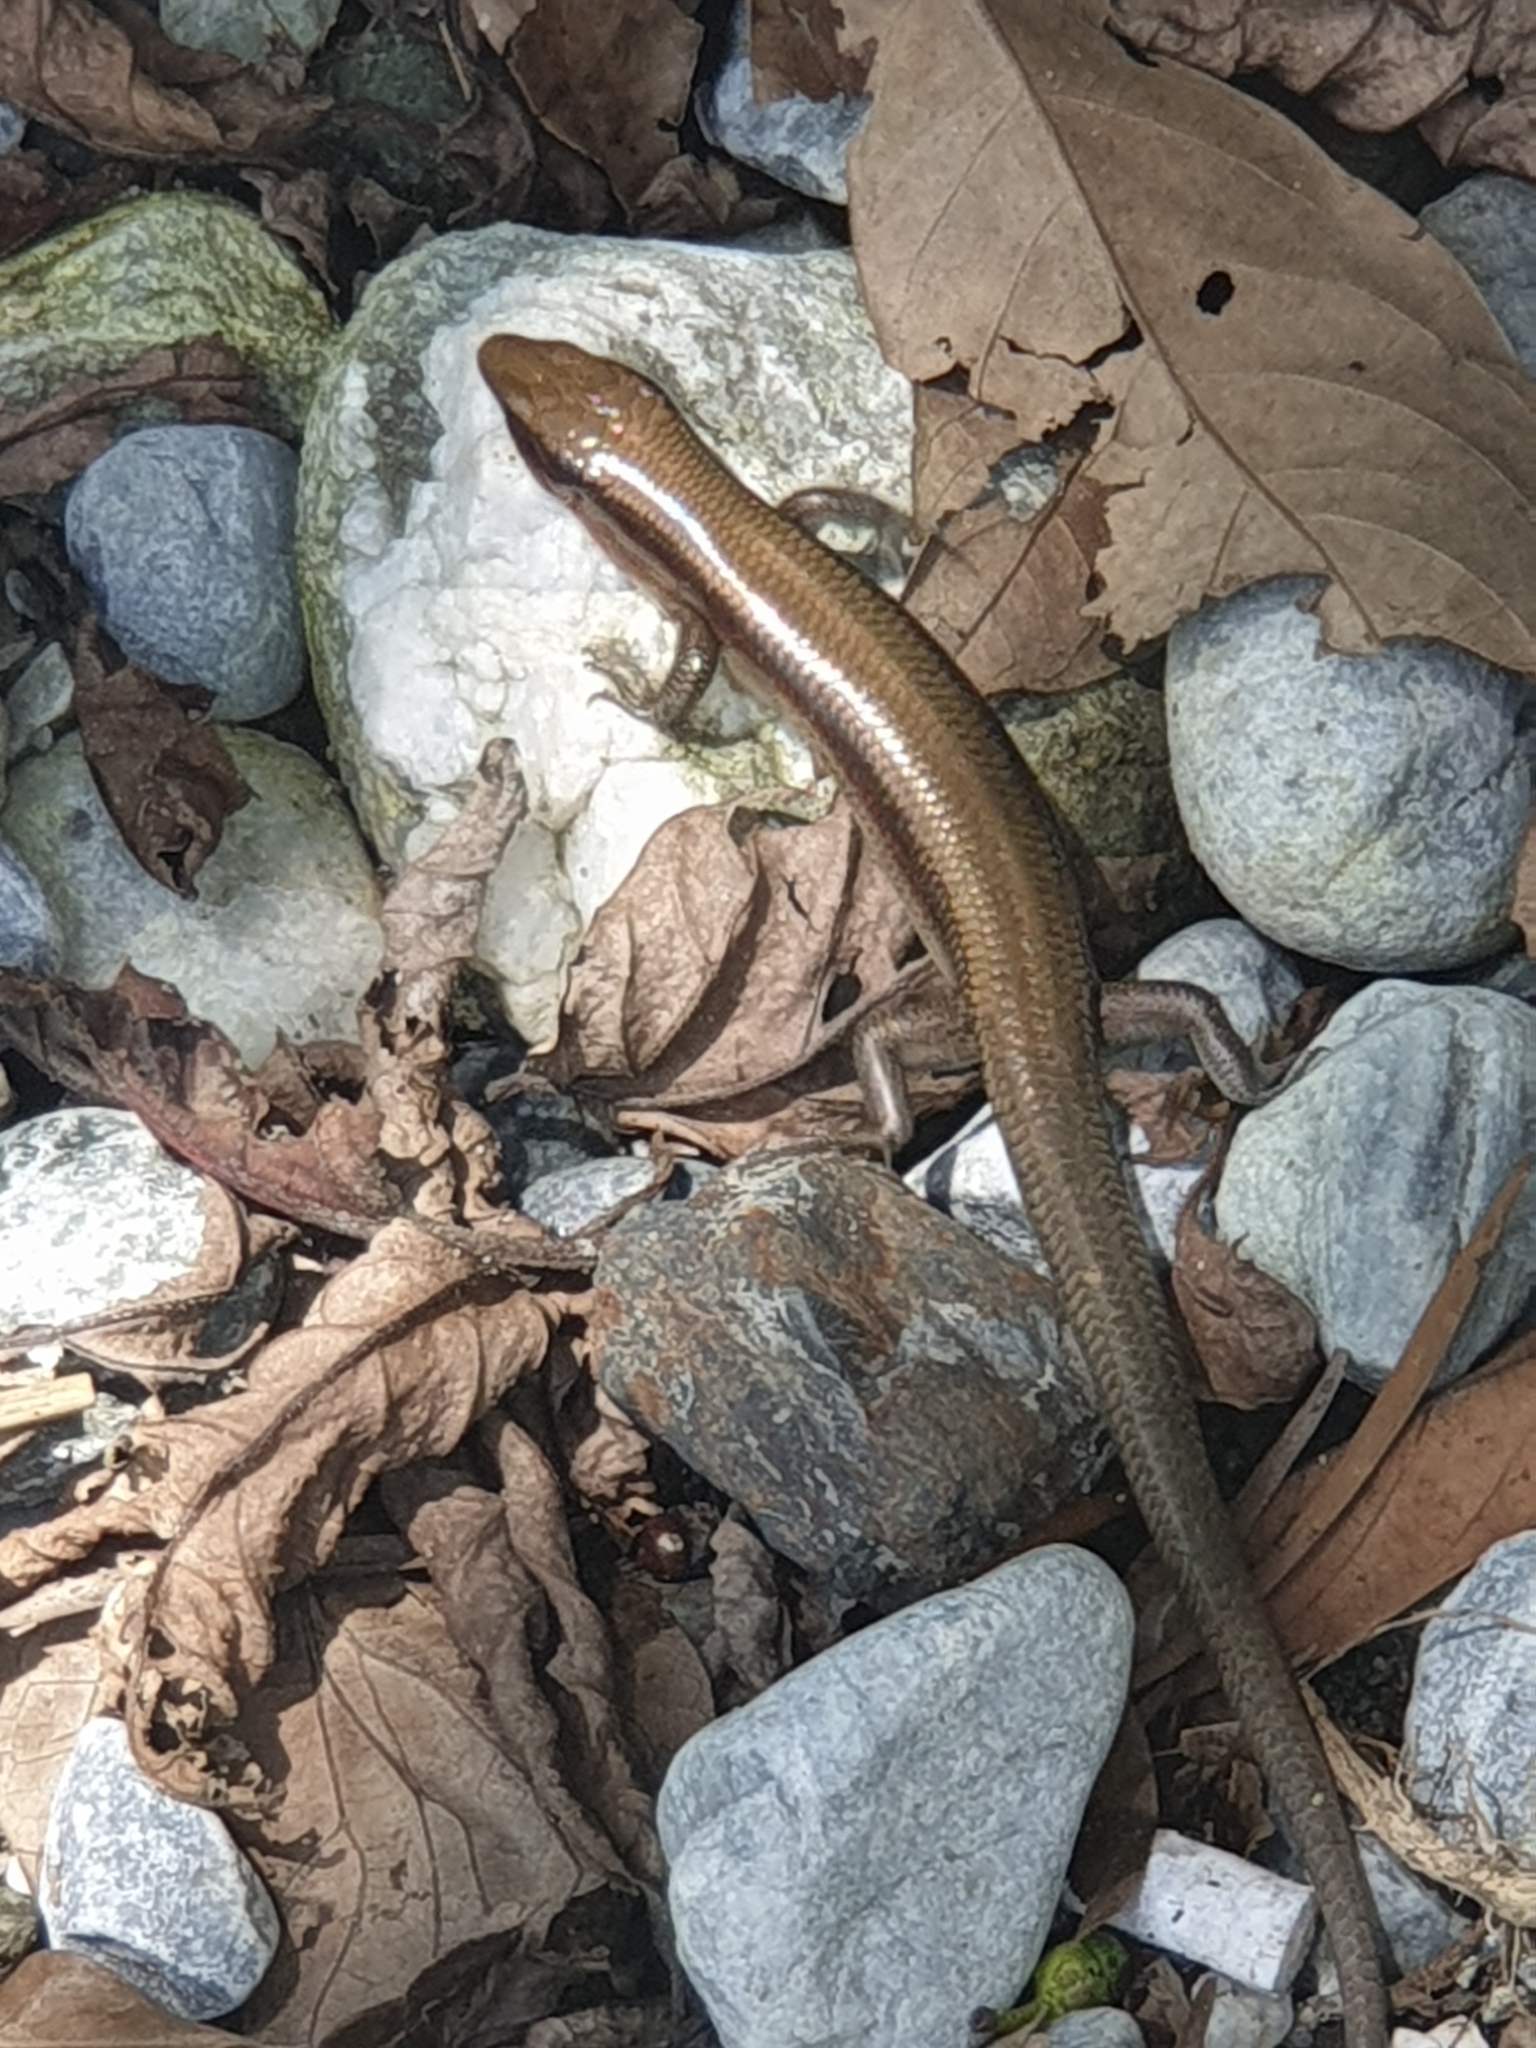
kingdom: Animalia
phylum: Chordata
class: Squamata
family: Scincidae
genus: Plestiodon
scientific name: Plestiodon elegans
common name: Shanghai elegant skink
